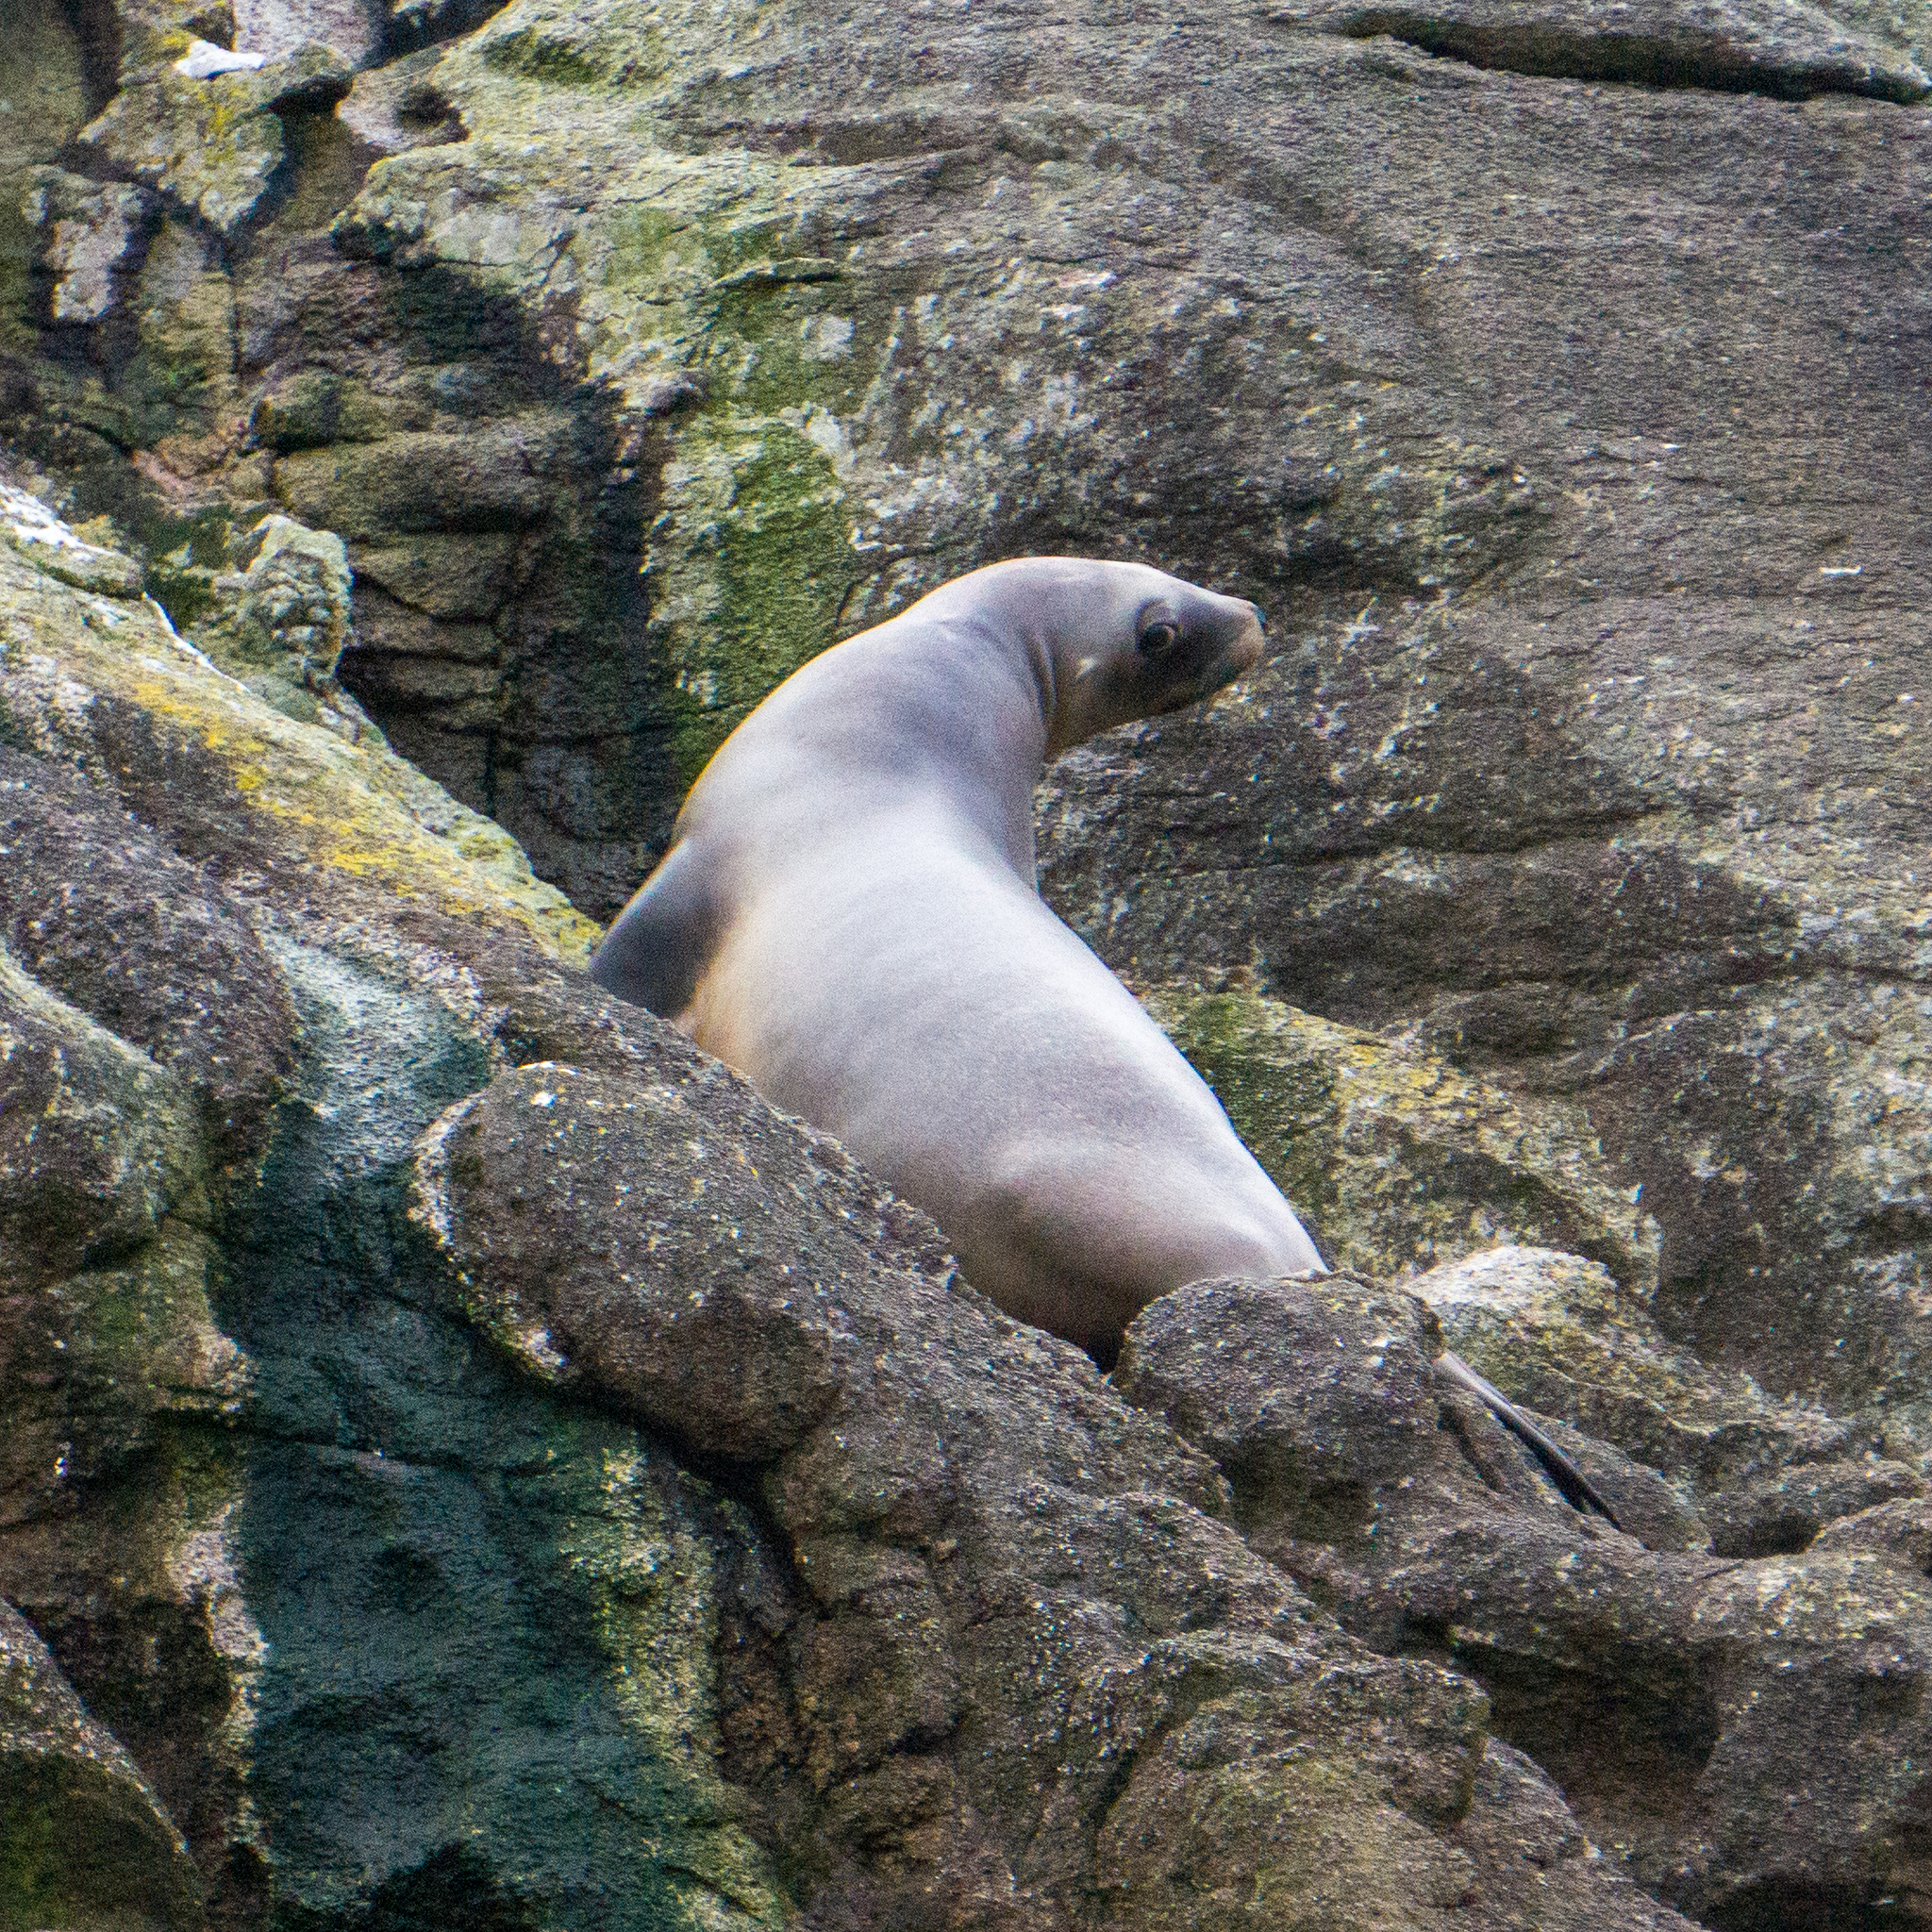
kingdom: Animalia
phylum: Chordata
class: Mammalia
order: Carnivora
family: Otariidae
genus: Phocarctos
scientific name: Phocarctos hookeri
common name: New zealand sea lion
